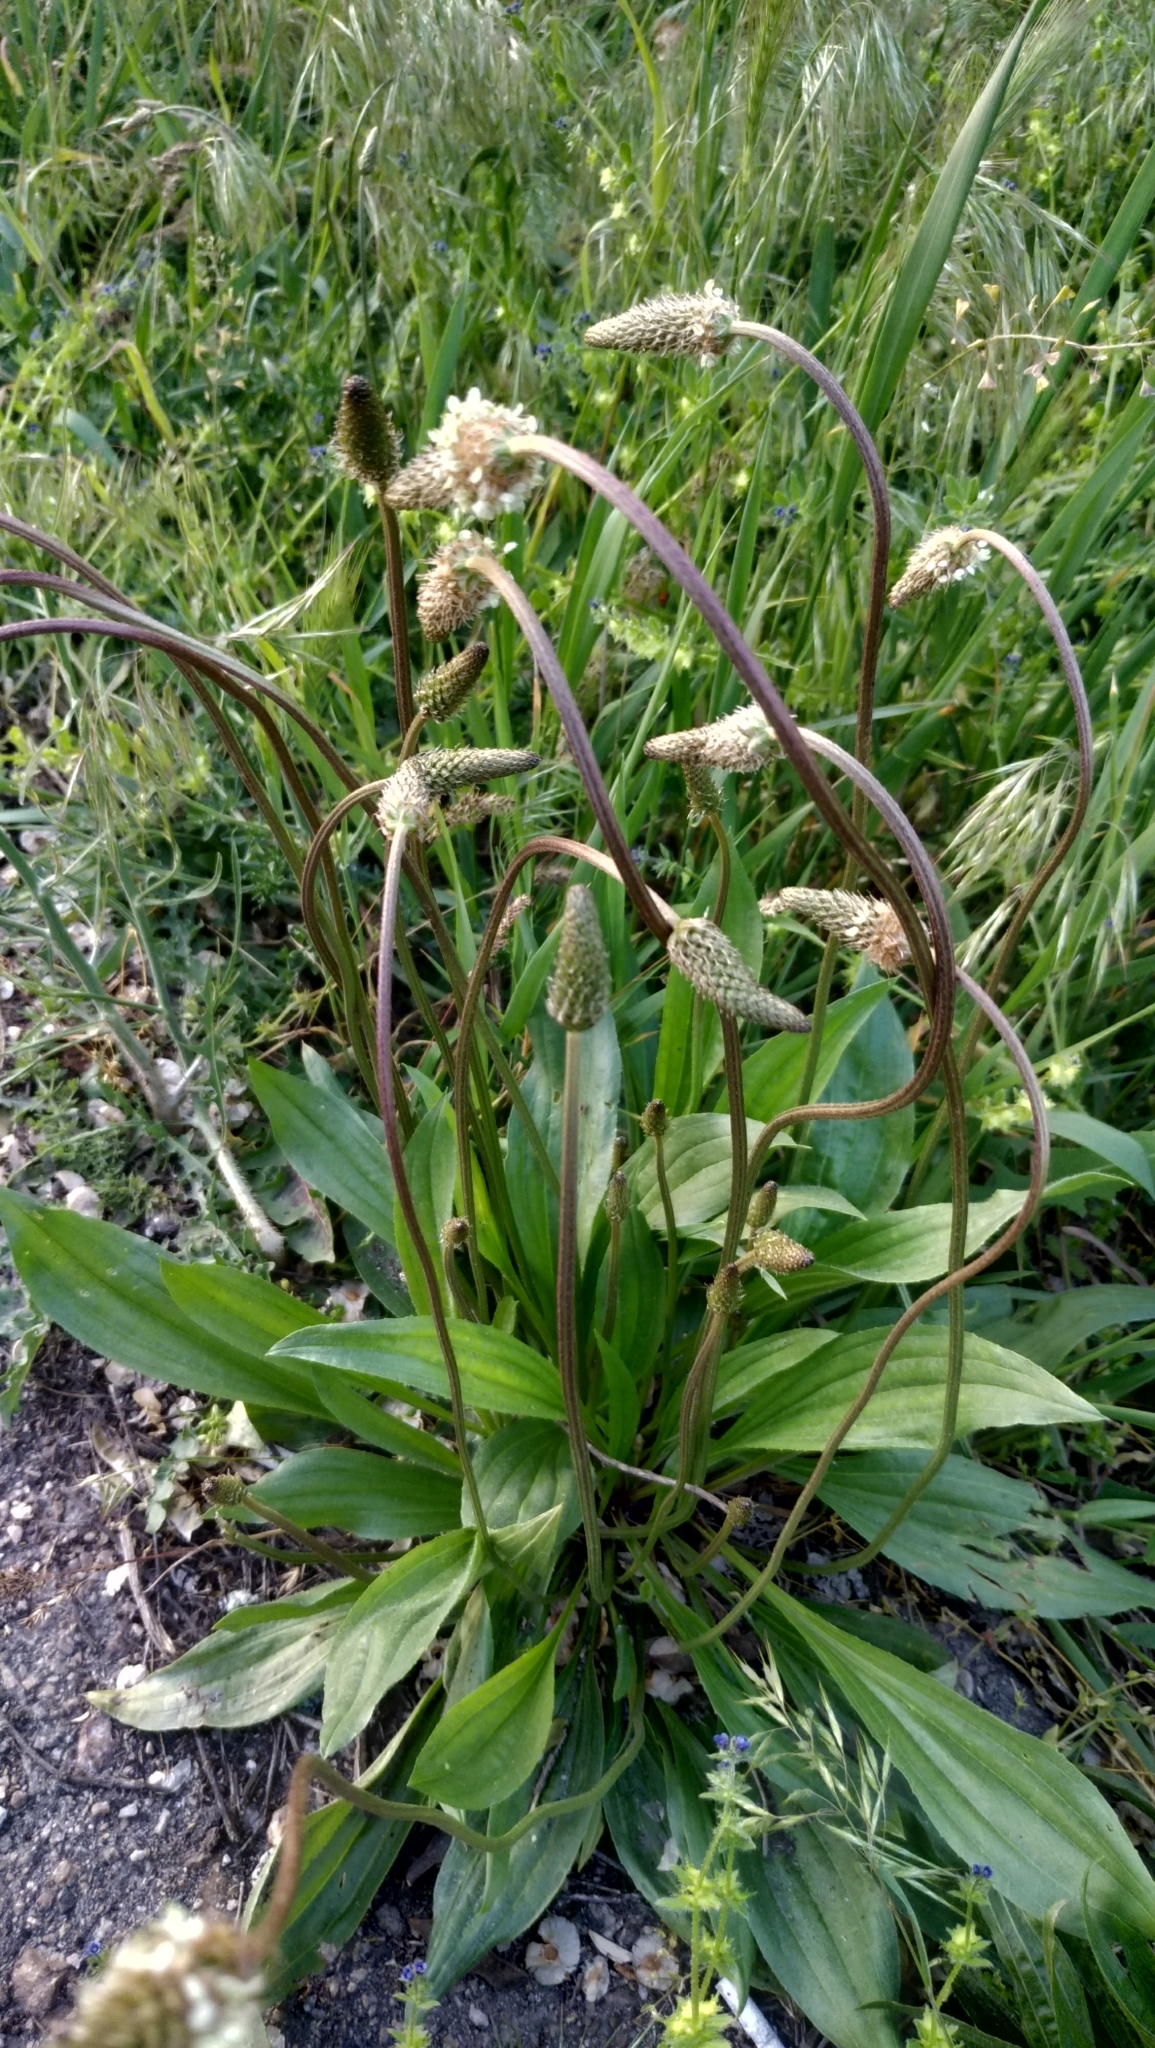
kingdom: Plantae
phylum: Tracheophyta
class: Magnoliopsida
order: Lamiales
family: Plantaginaceae
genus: Plantago
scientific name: Plantago lanceolata
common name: Ribwort plantain
